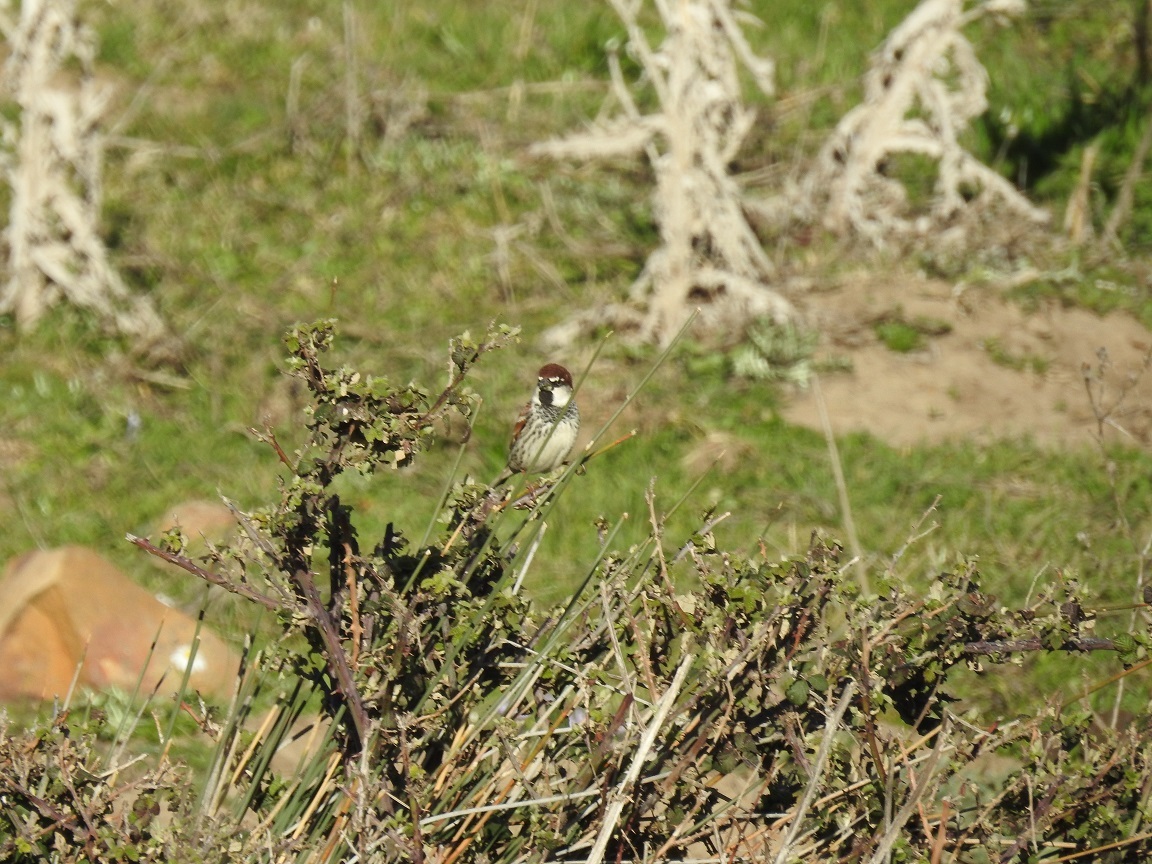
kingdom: Animalia
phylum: Chordata
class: Aves
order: Passeriformes
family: Passeridae
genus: Passer
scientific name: Passer hispaniolensis
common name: Spanish sparrow
